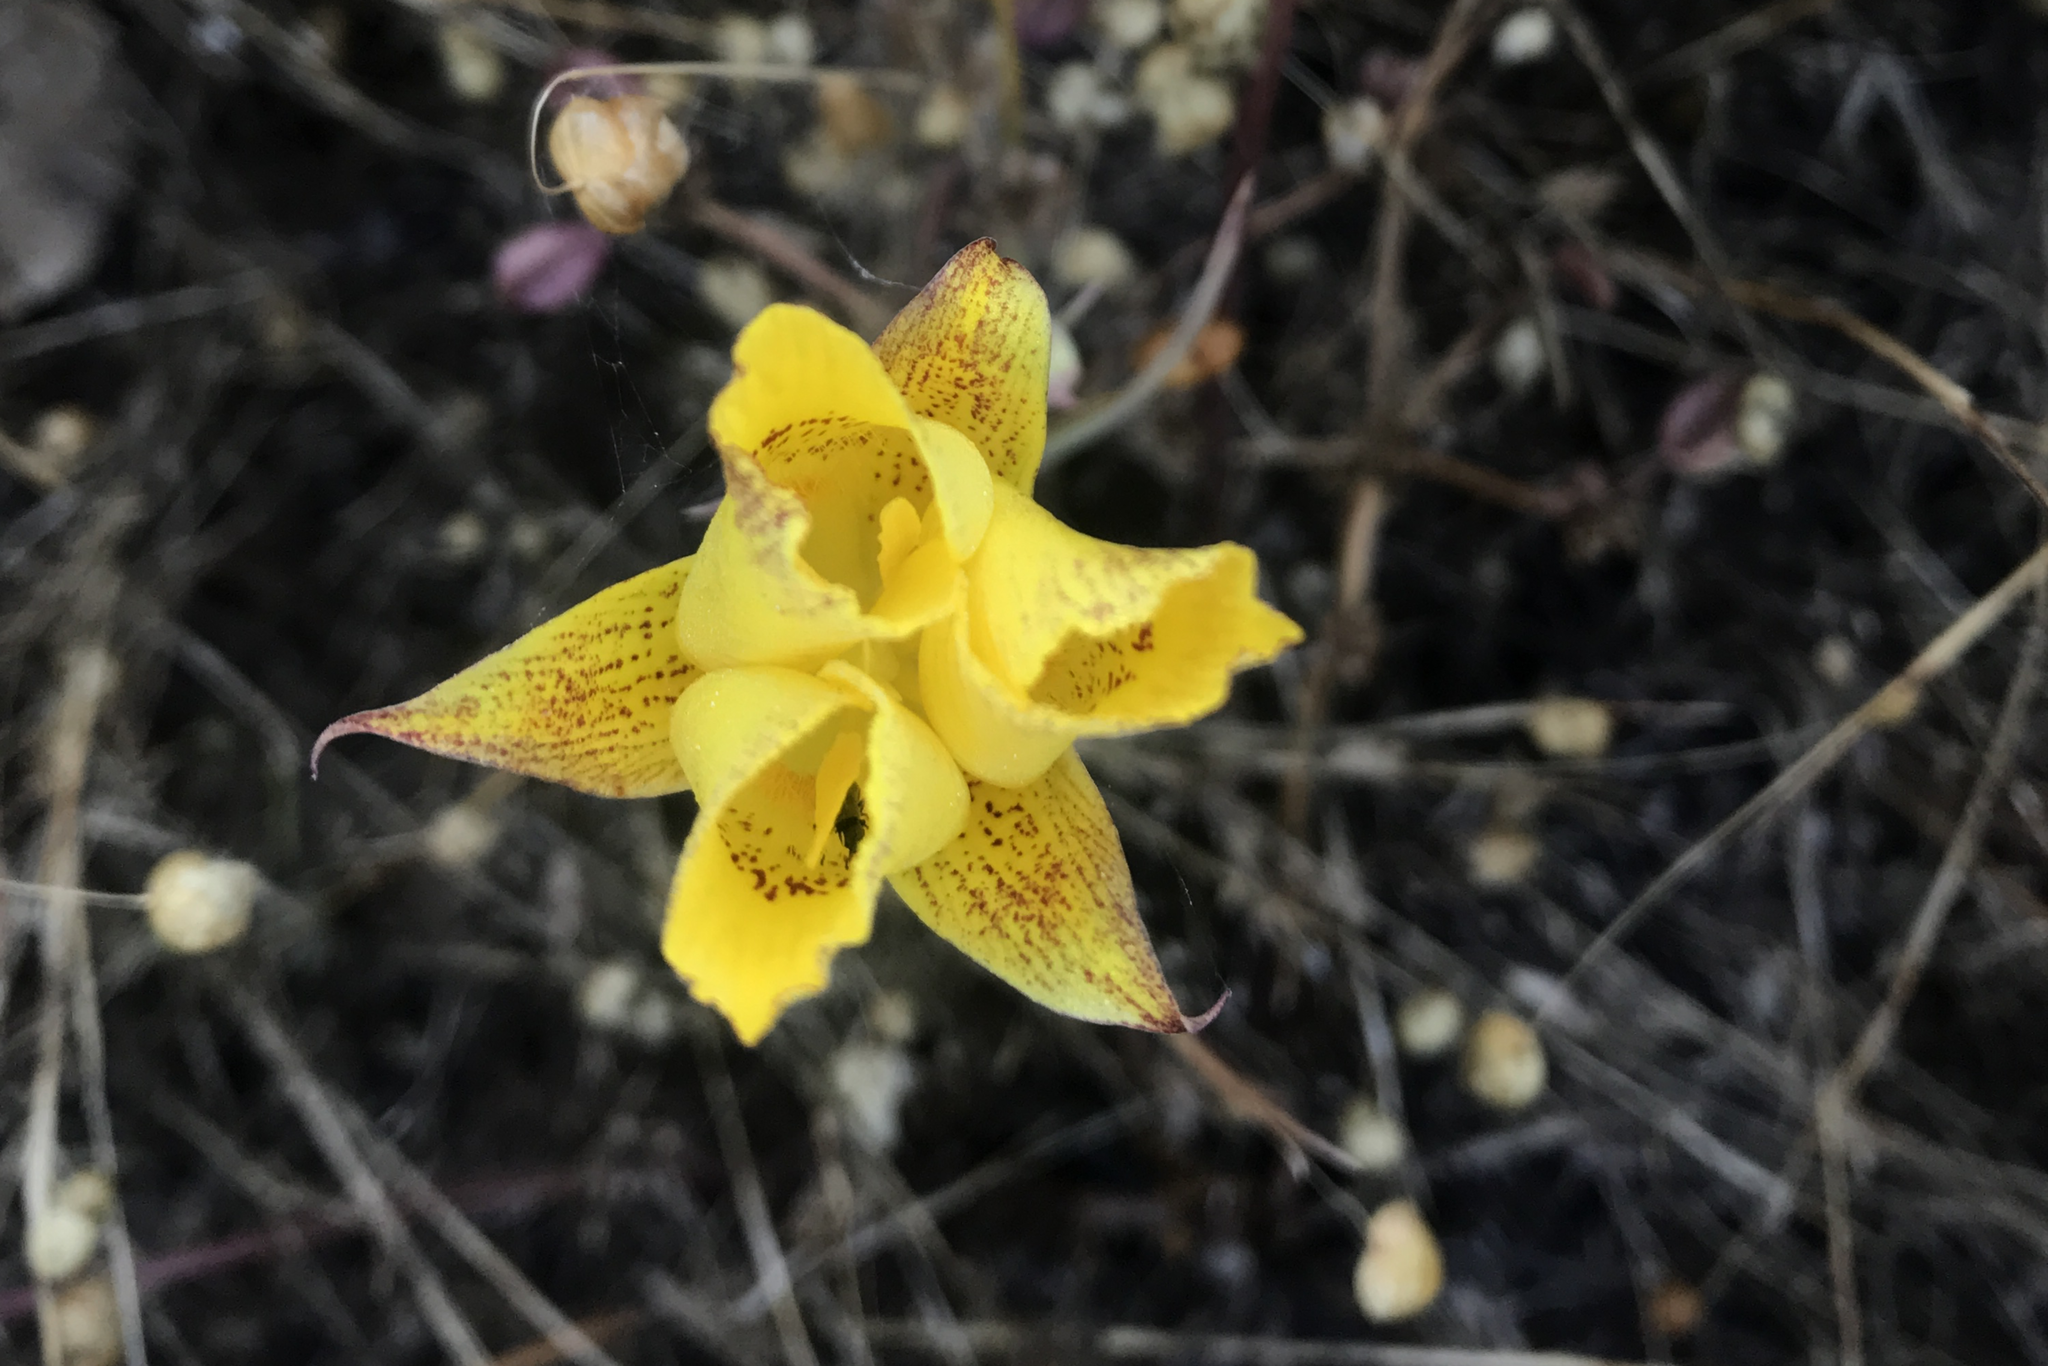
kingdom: Plantae
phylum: Tracheophyta
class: Liliopsida
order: Liliales
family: Liliaceae
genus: Calochortus
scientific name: Calochortus luteus
